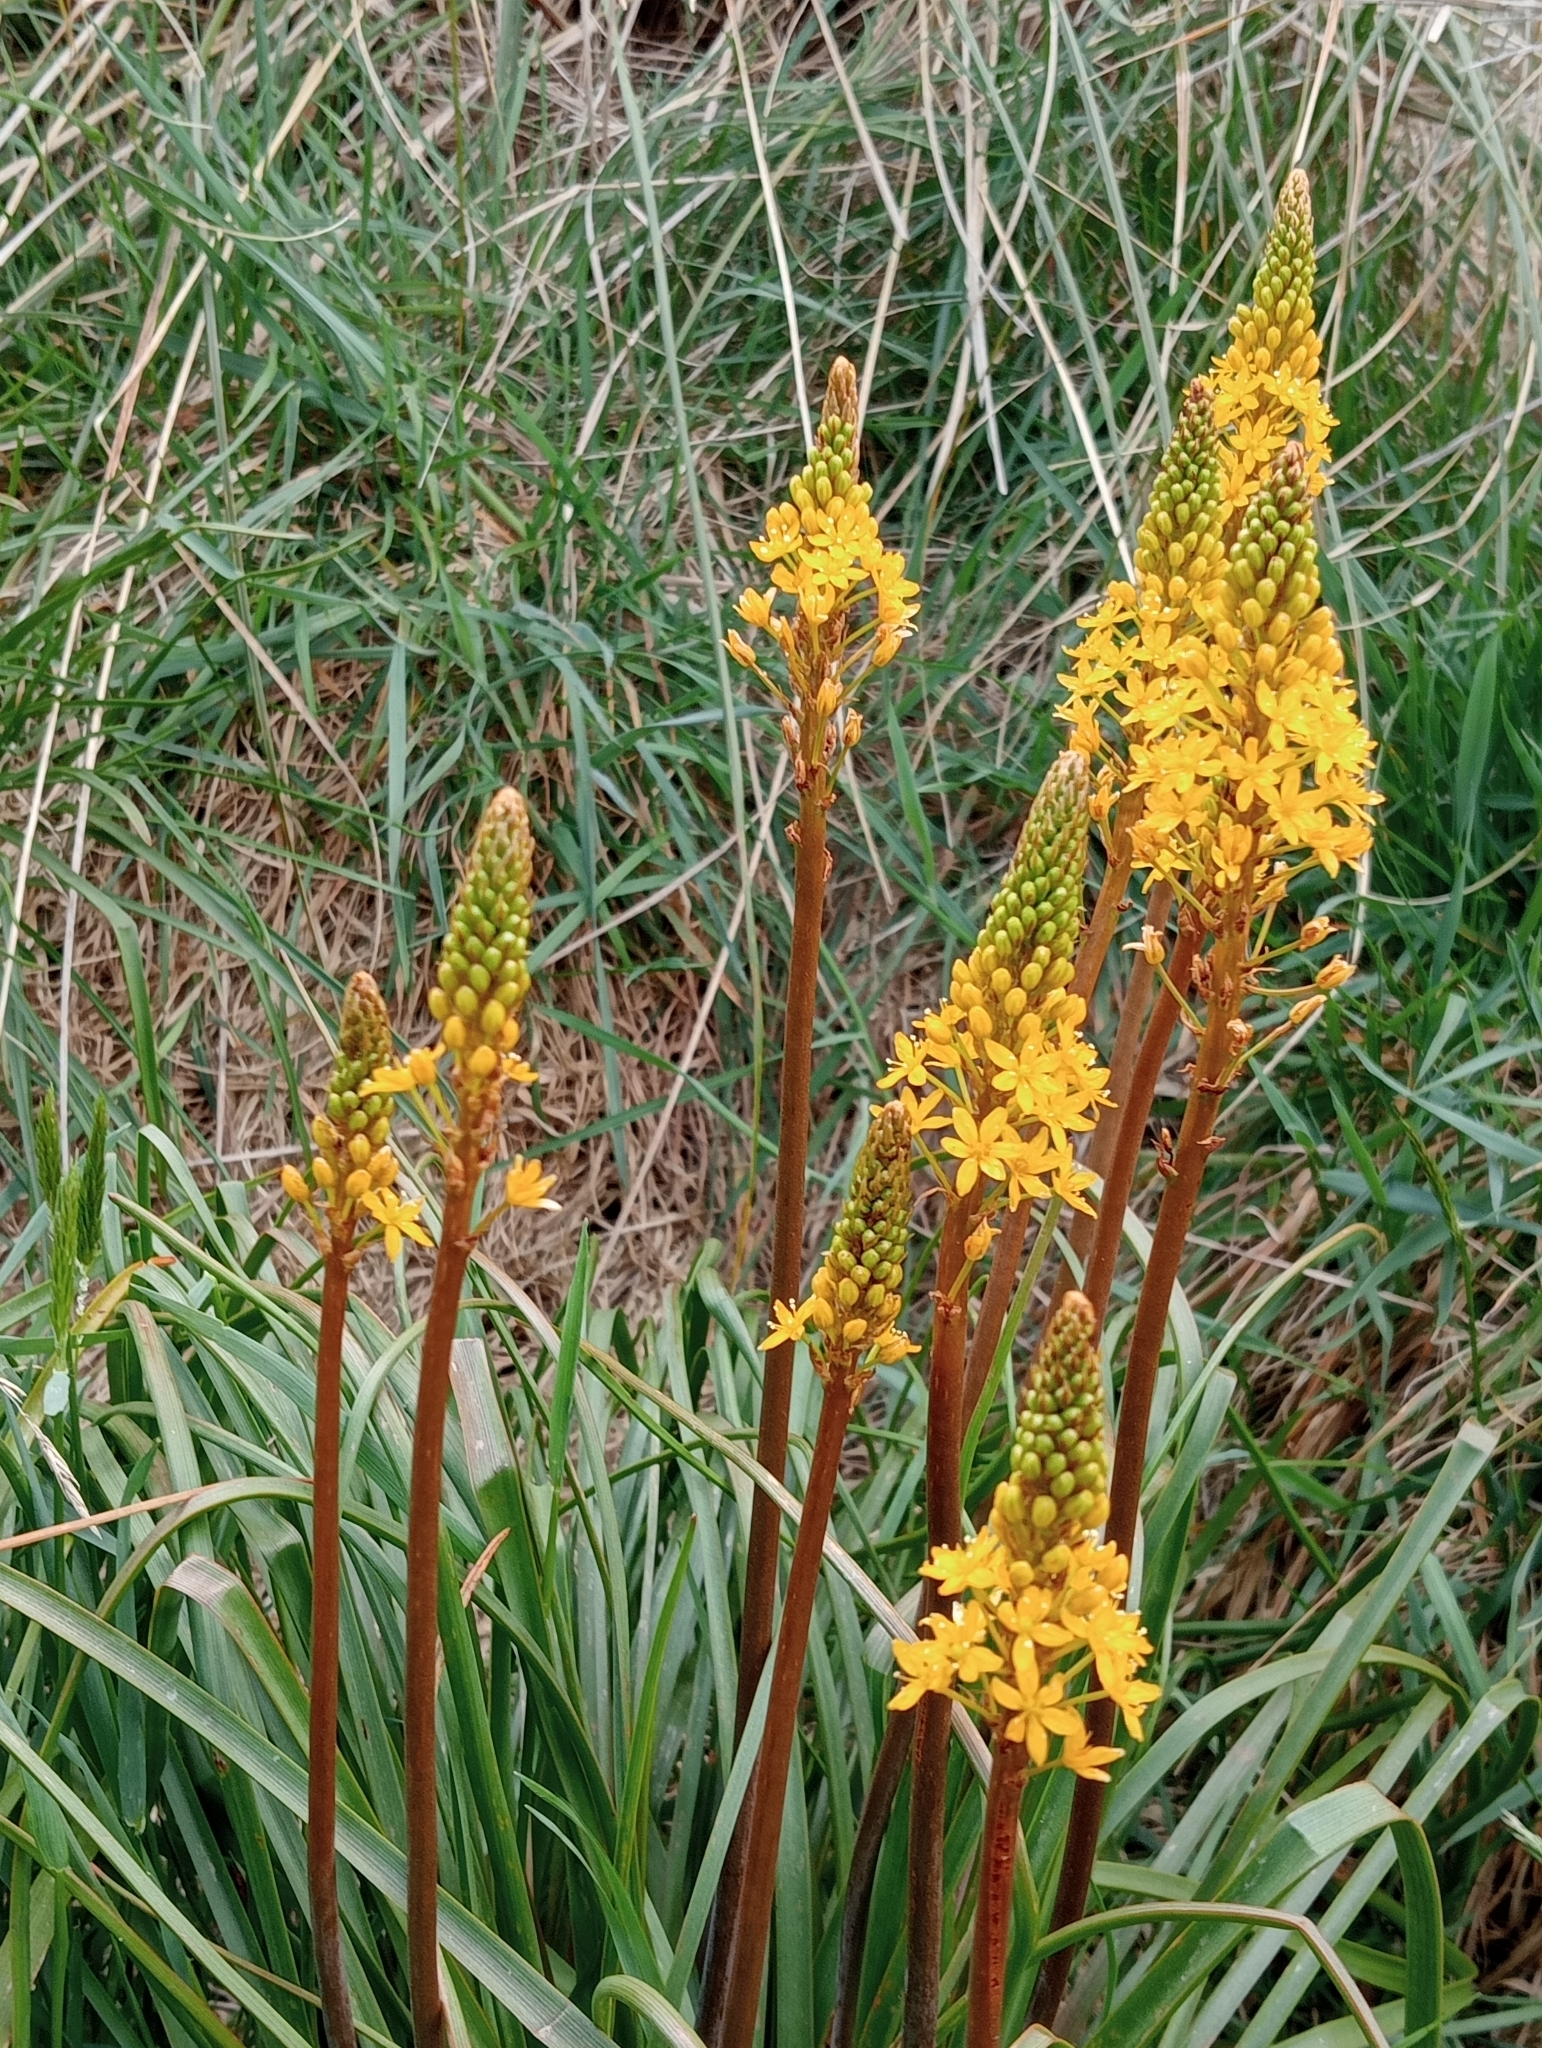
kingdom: Plantae
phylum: Tracheophyta
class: Liliopsida
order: Asparagales
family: Asphodelaceae
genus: Bulbinella
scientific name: Bulbinella angustifolia
